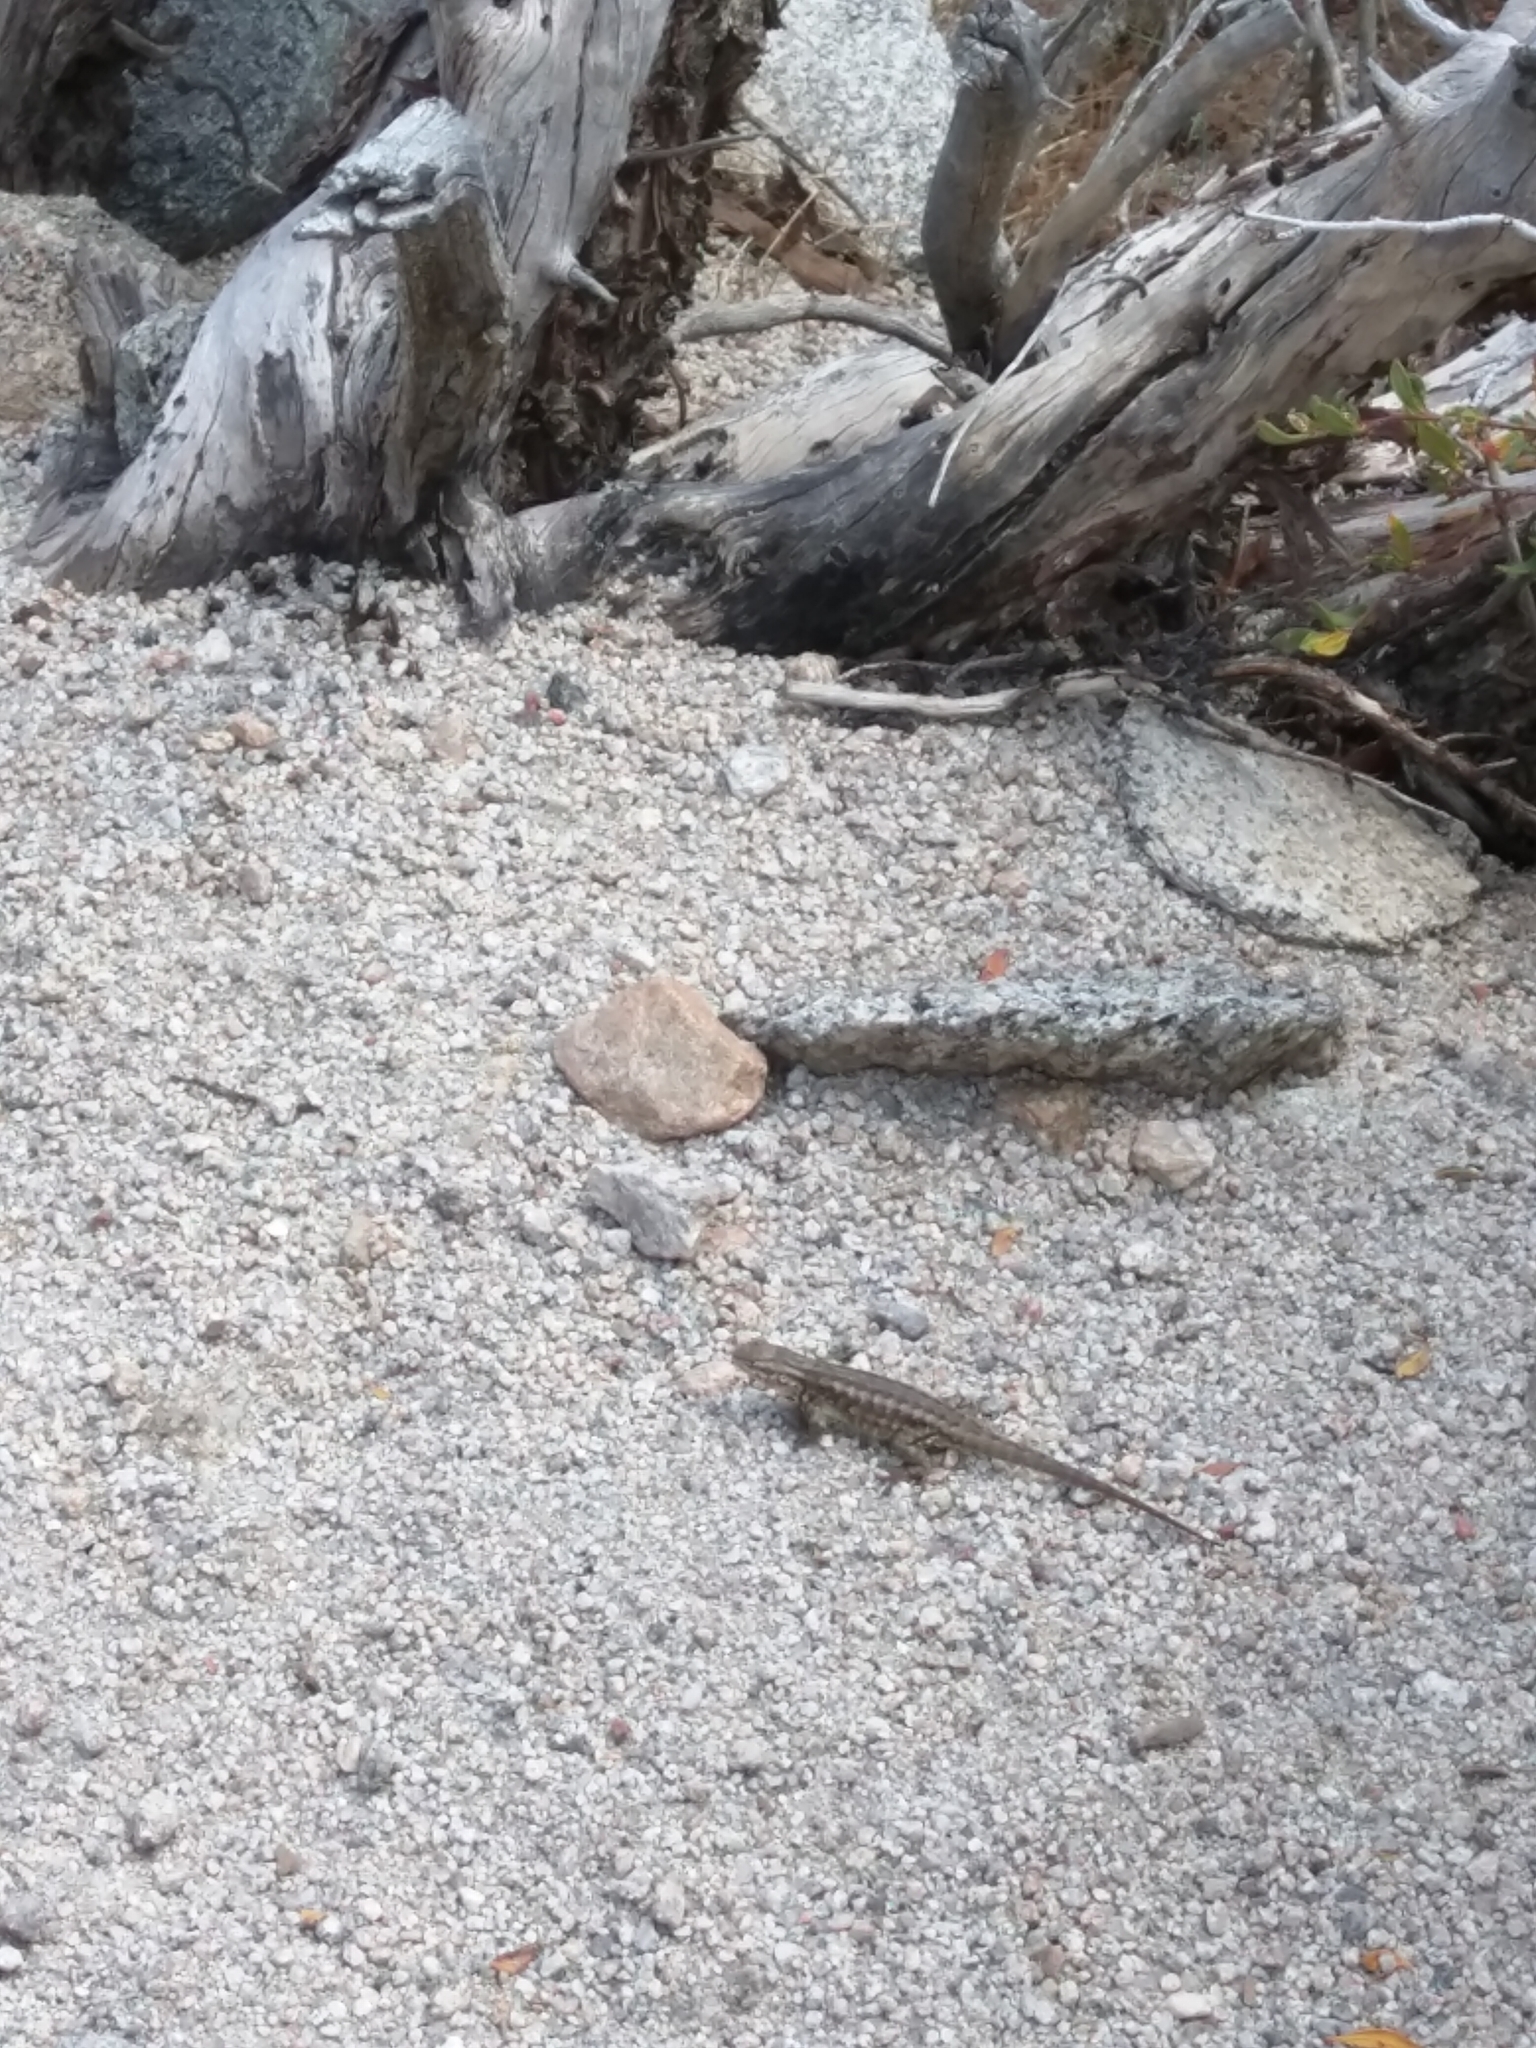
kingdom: Animalia
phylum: Chordata
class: Squamata
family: Phrynosomatidae
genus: Sceloporus
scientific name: Sceloporus graciosus
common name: Sagebrush lizard
